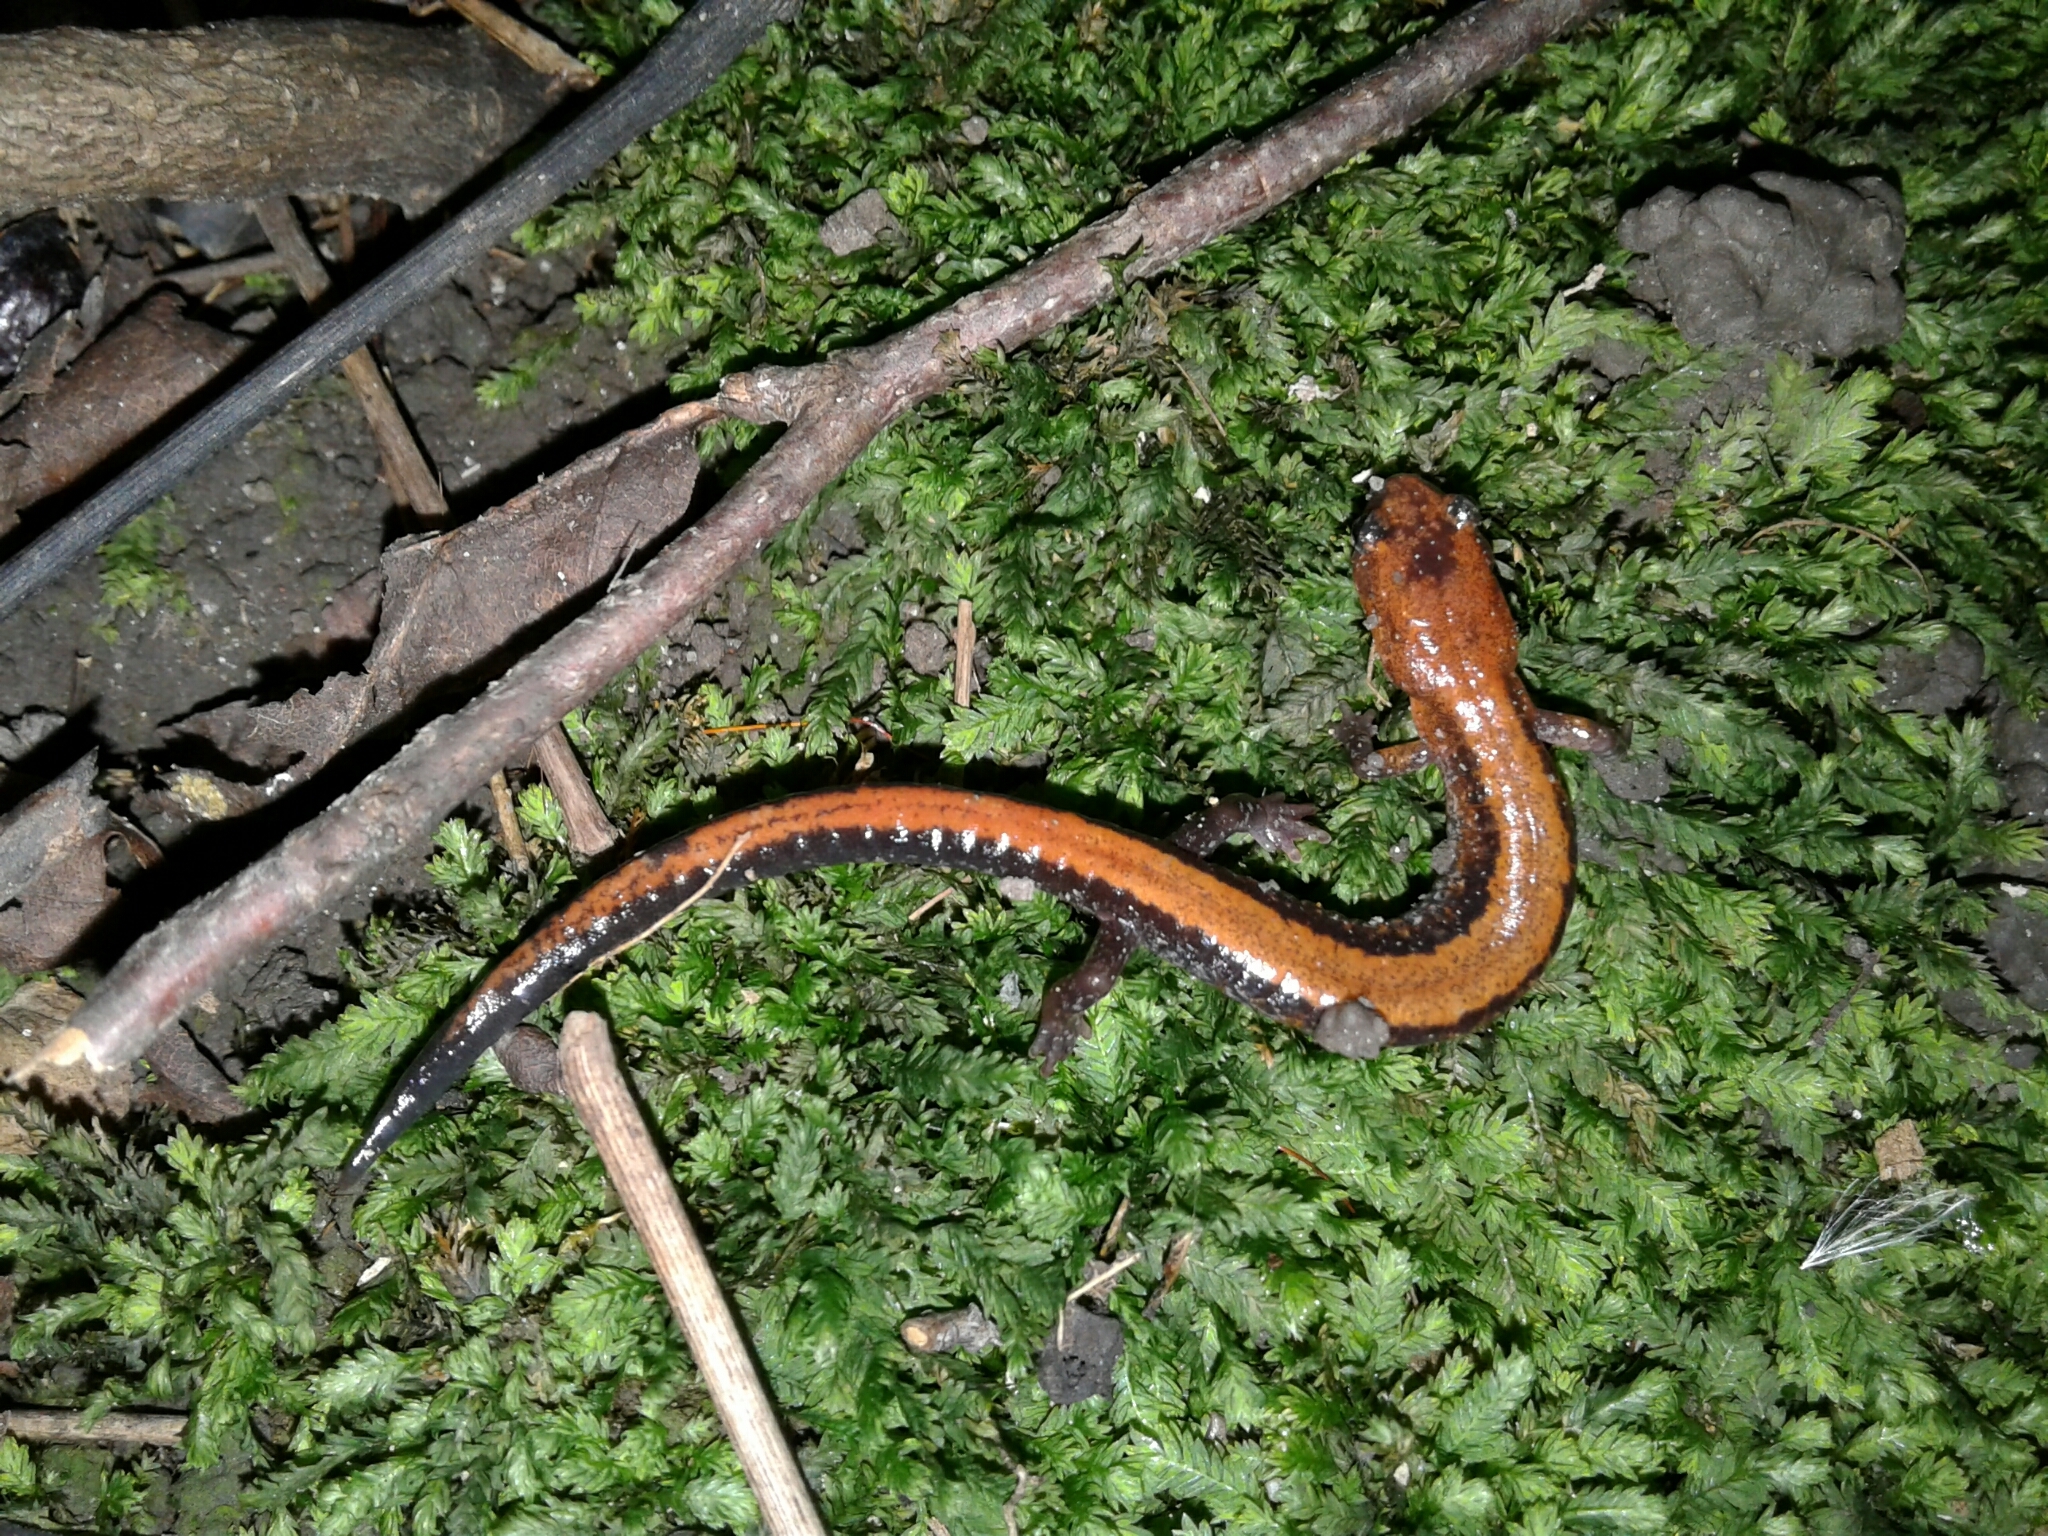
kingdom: Animalia
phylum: Chordata
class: Amphibia
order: Caudata
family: Plethodontidae
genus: Plethodon
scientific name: Plethodon cinereus
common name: Redback salamander
